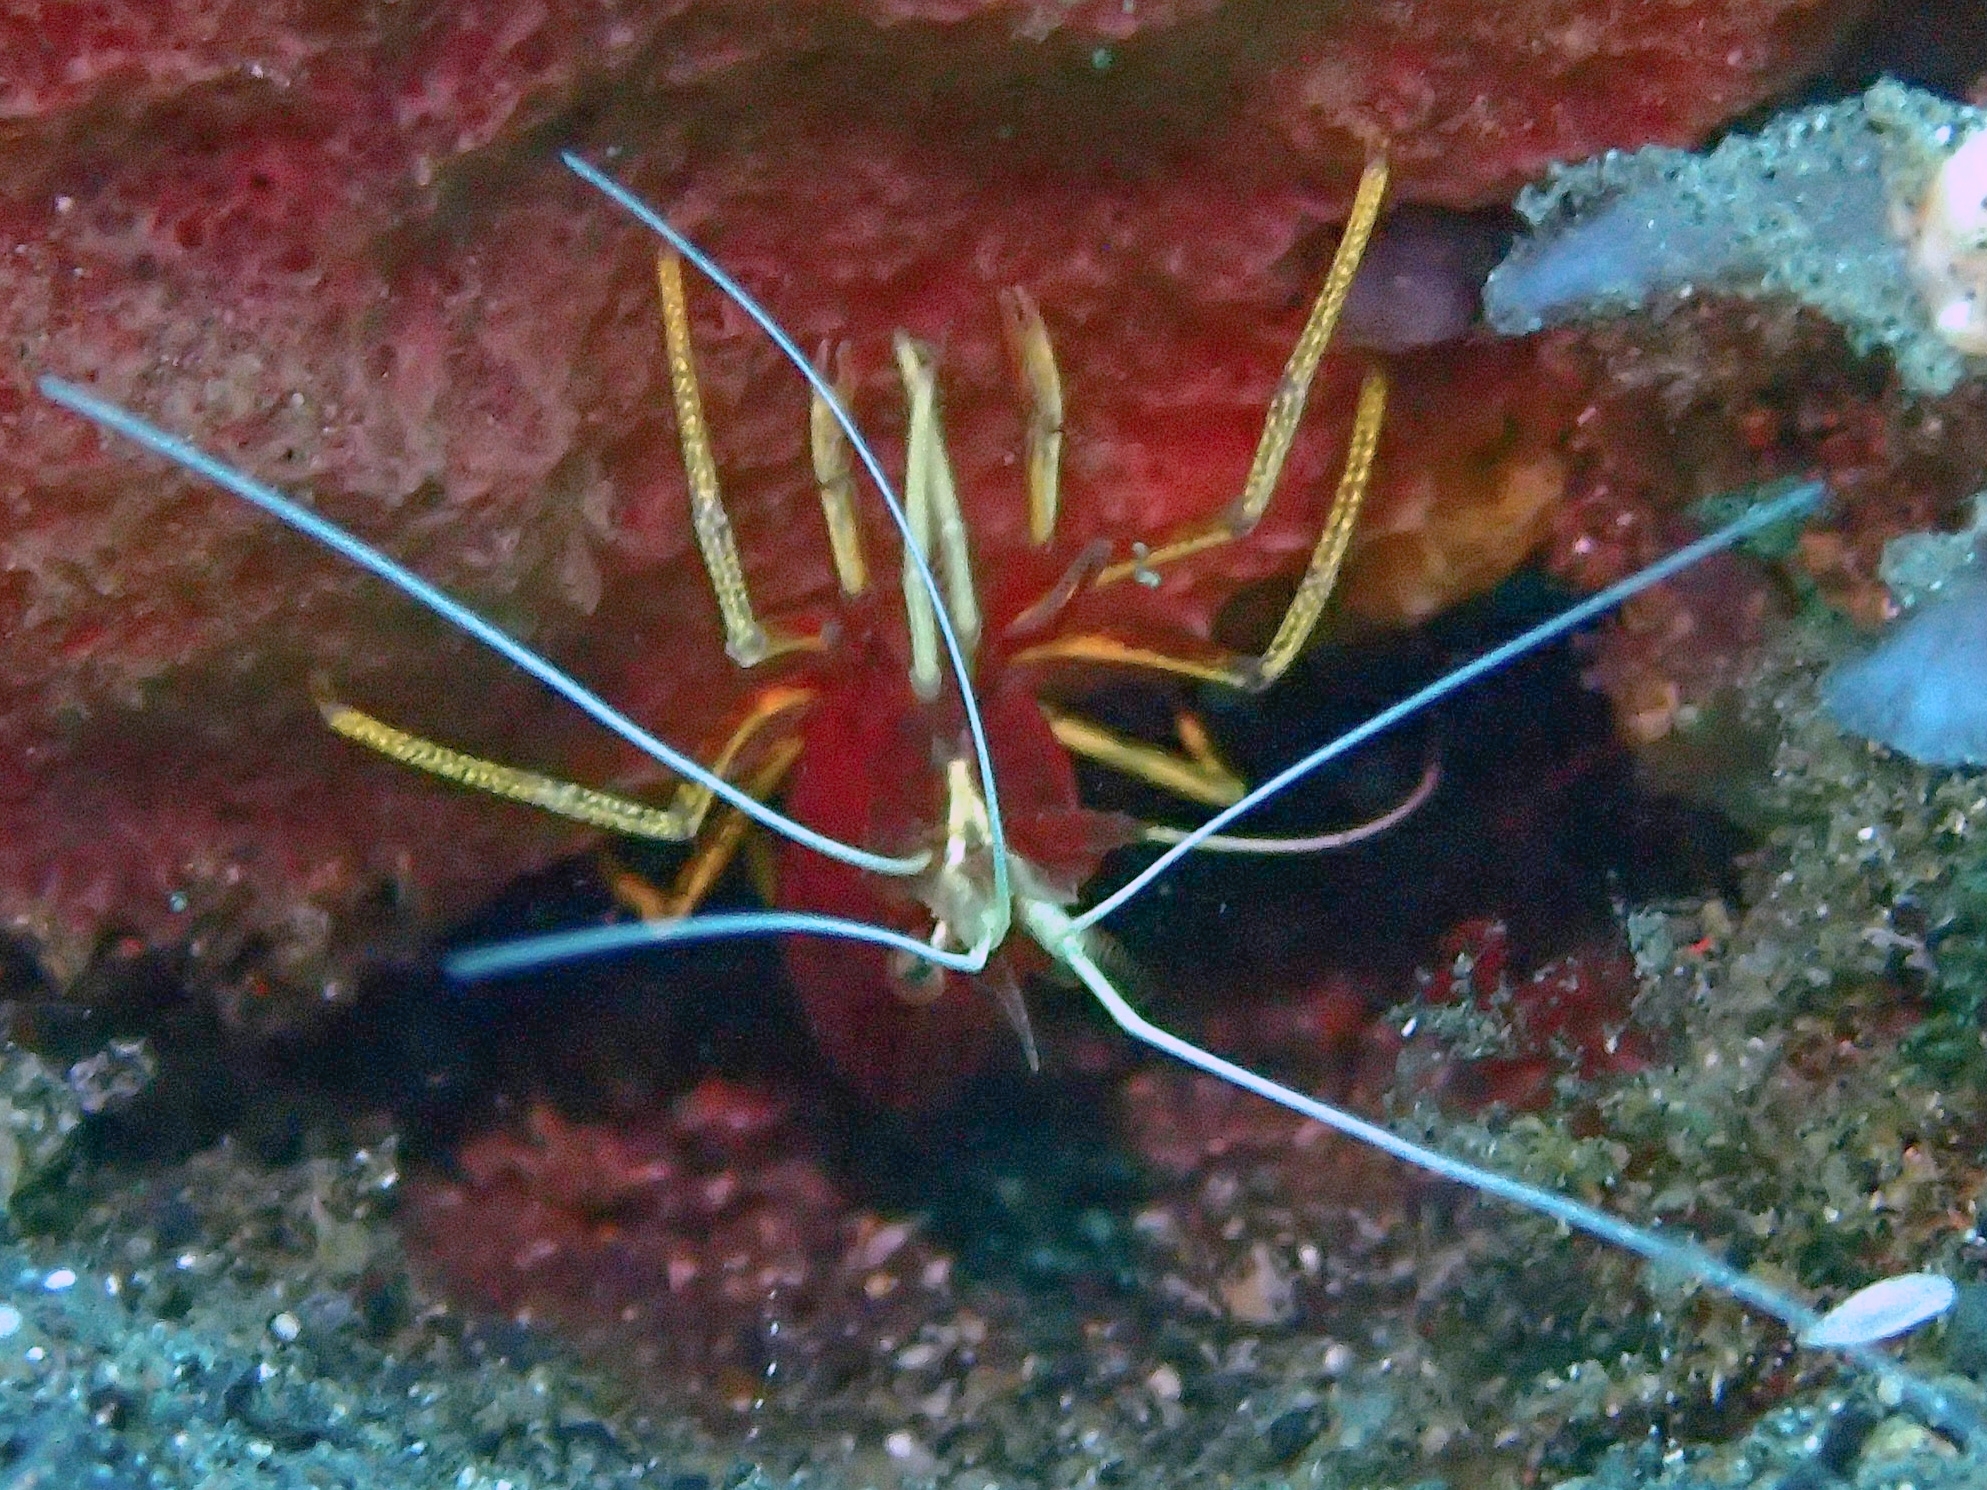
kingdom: Animalia
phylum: Arthropoda
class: Malacostraca
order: Decapoda
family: Lysmatidae
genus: Lysmatella
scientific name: Lysmatella prima
